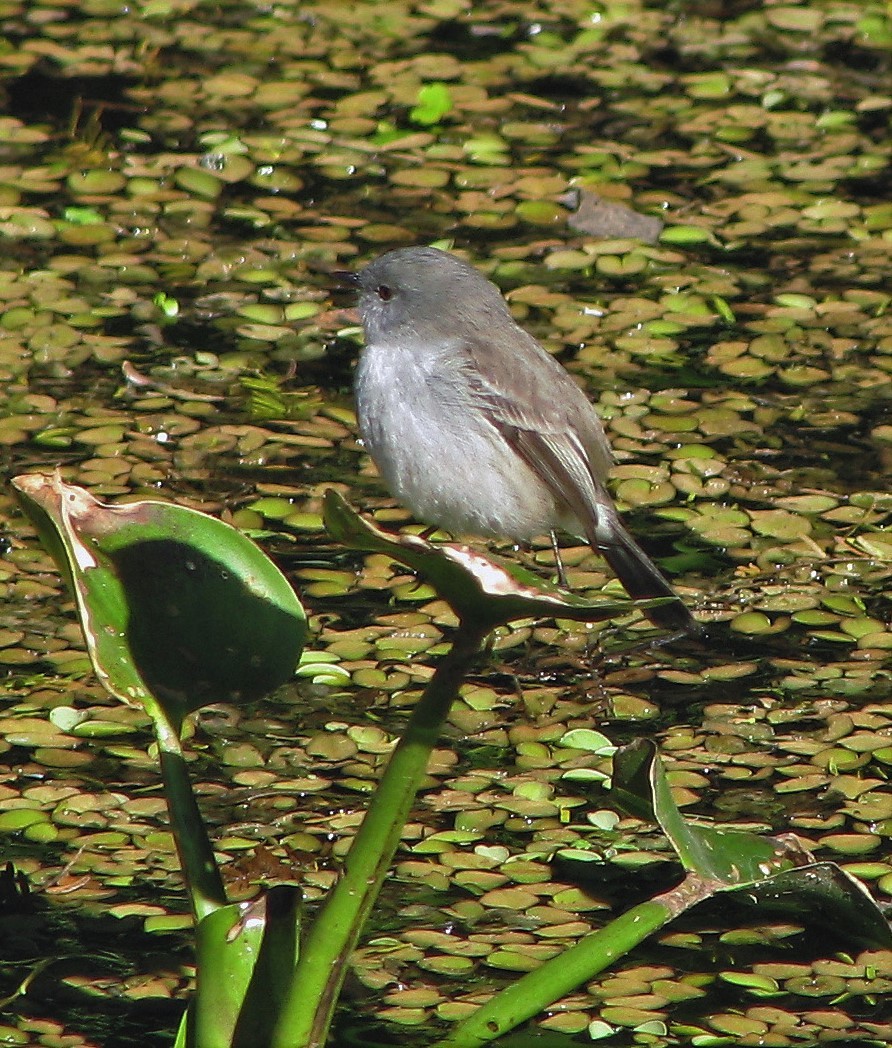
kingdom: Animalia
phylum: Chordata
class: Aves
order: Passeriformes
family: Tyrannidae
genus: Serpophaga
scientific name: Serpophaga nigricans
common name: Sooty tyrannulet
